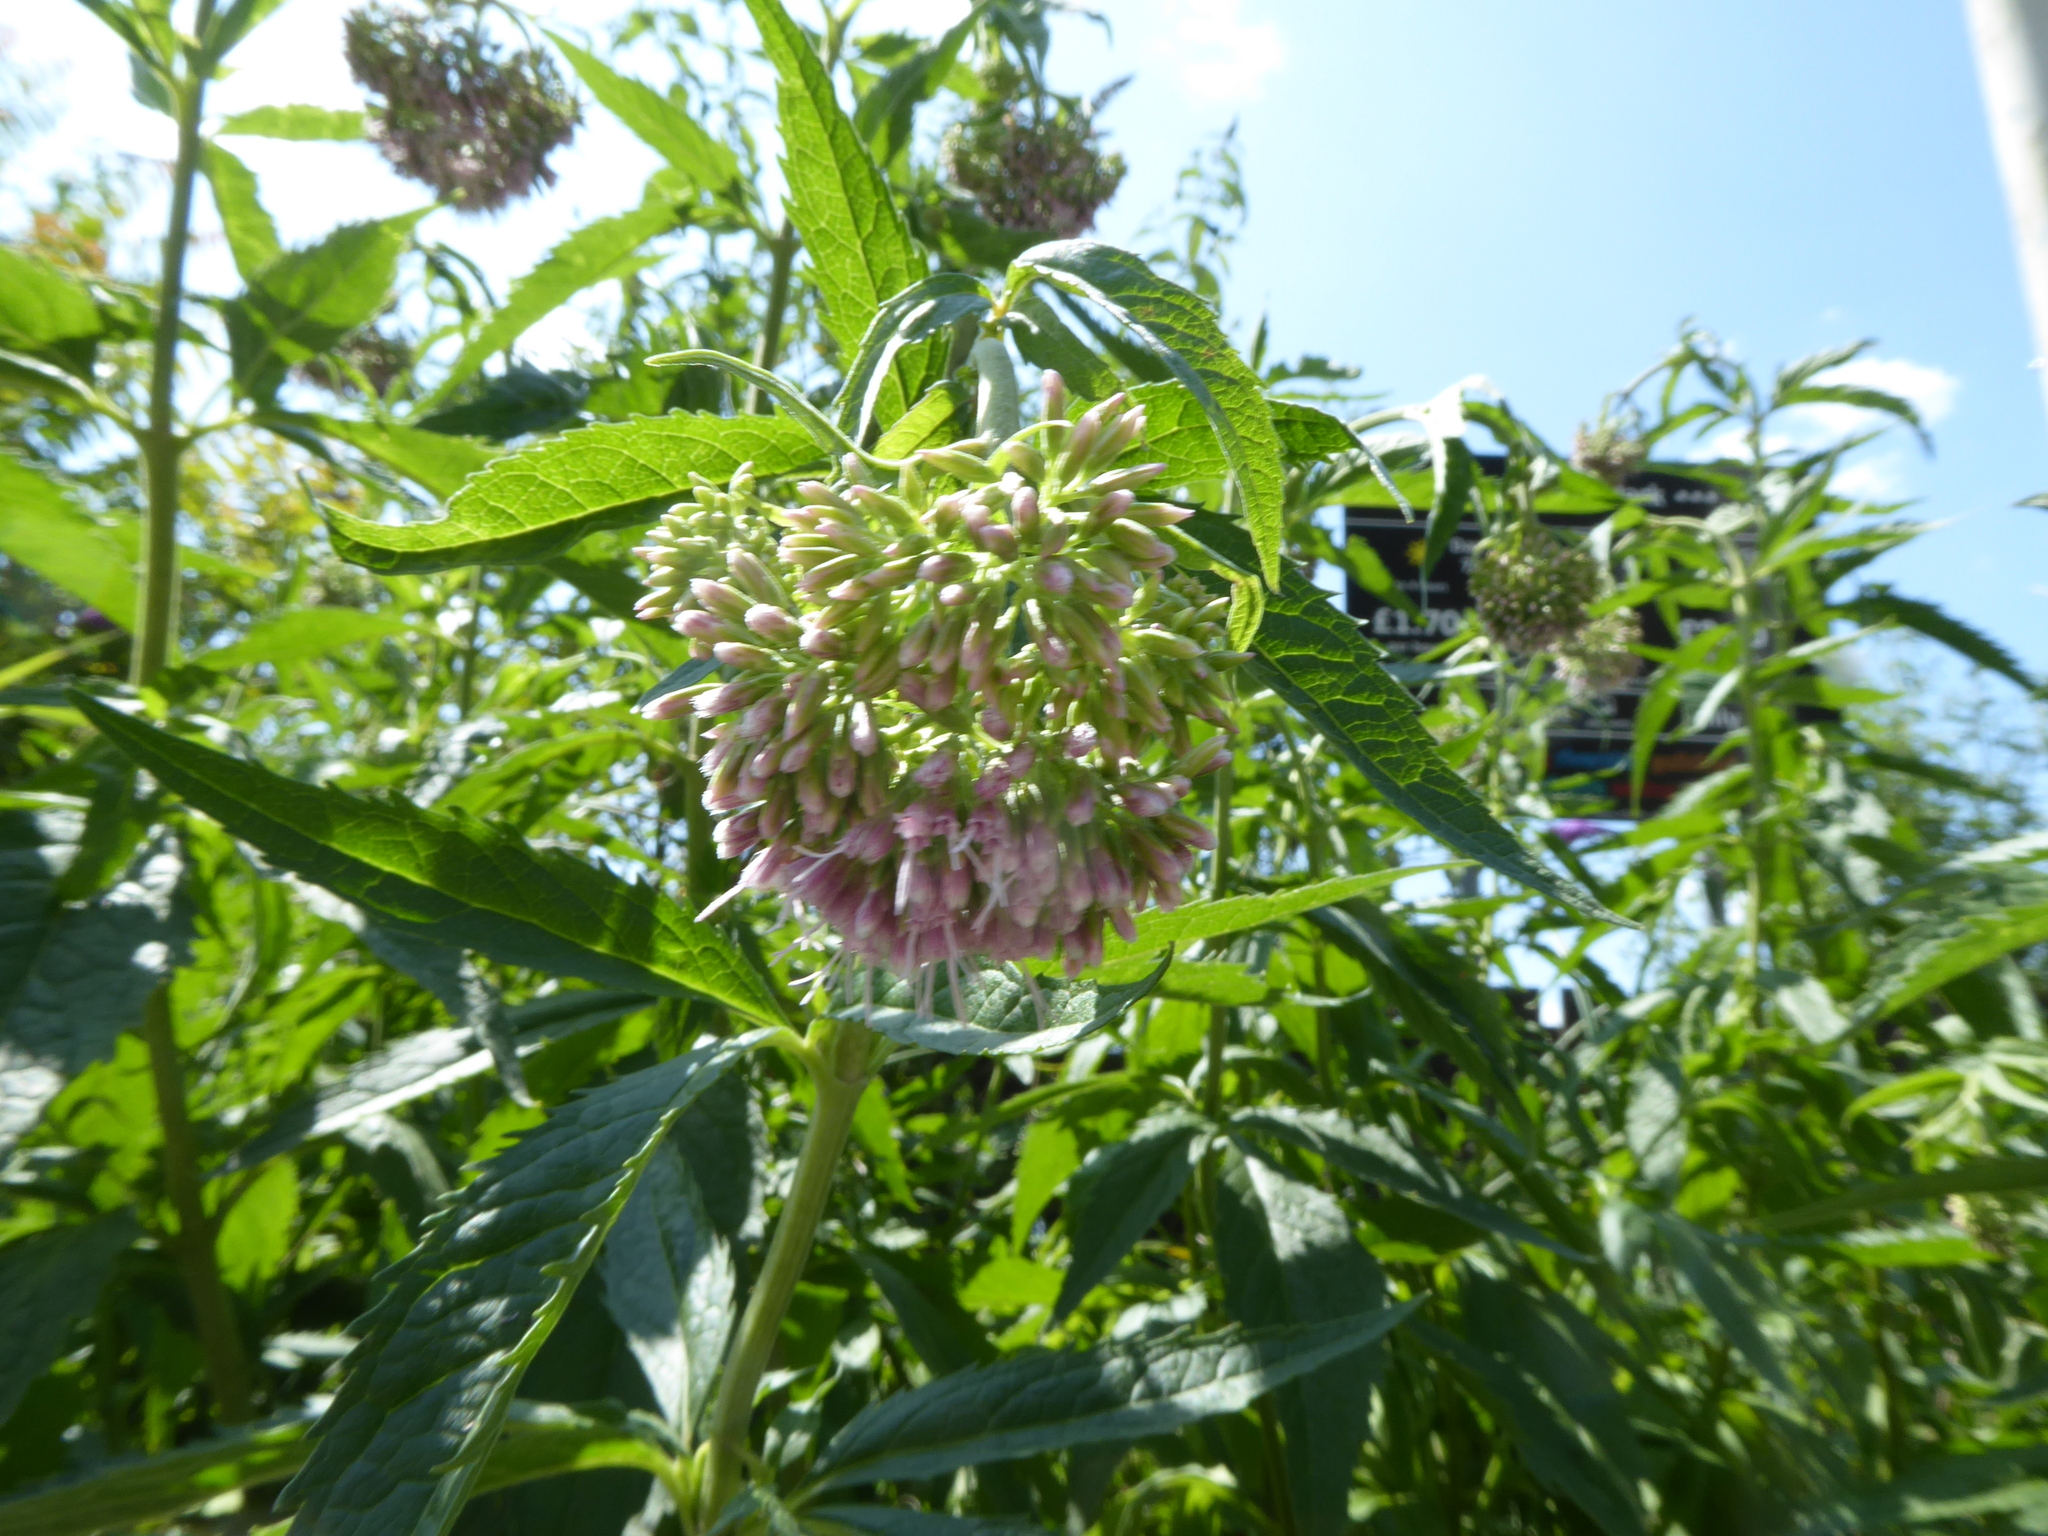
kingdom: Plantae
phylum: Tracheophyta
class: Magnoliopsida
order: Asterales
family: Asteraceae
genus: Eupatorium
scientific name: Eupatorium cannabinum
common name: Hemp-agrimony
